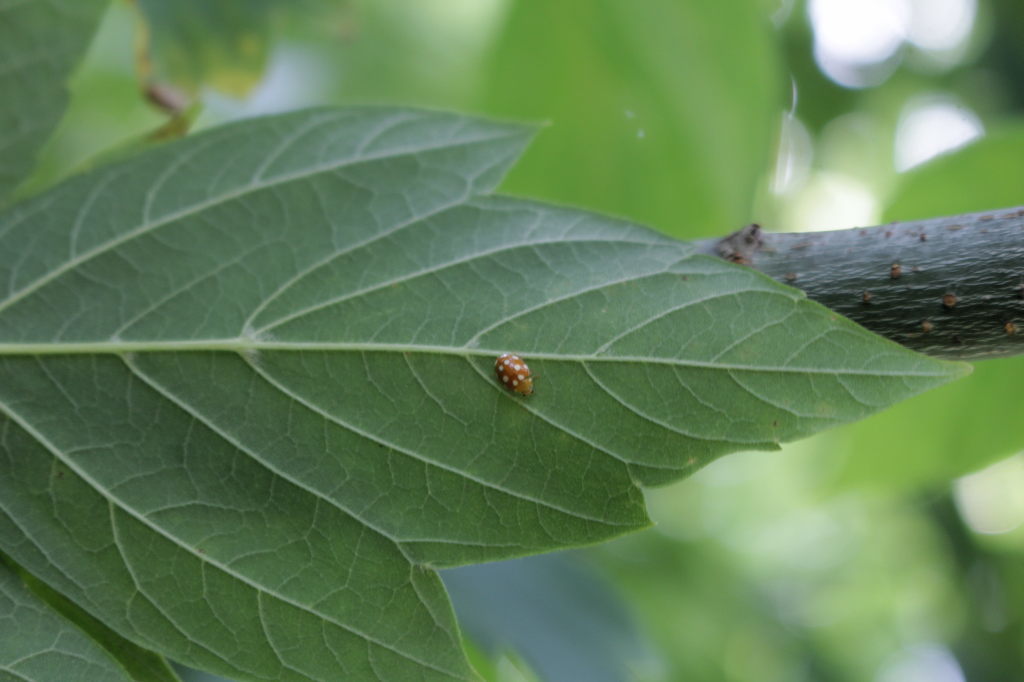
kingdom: Animalia
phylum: Arthropoda
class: Insecta
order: Coleoptera
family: Coccinellidae
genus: Vibidia
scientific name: Vibidia duodecimguttata
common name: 12-spot ladybird
